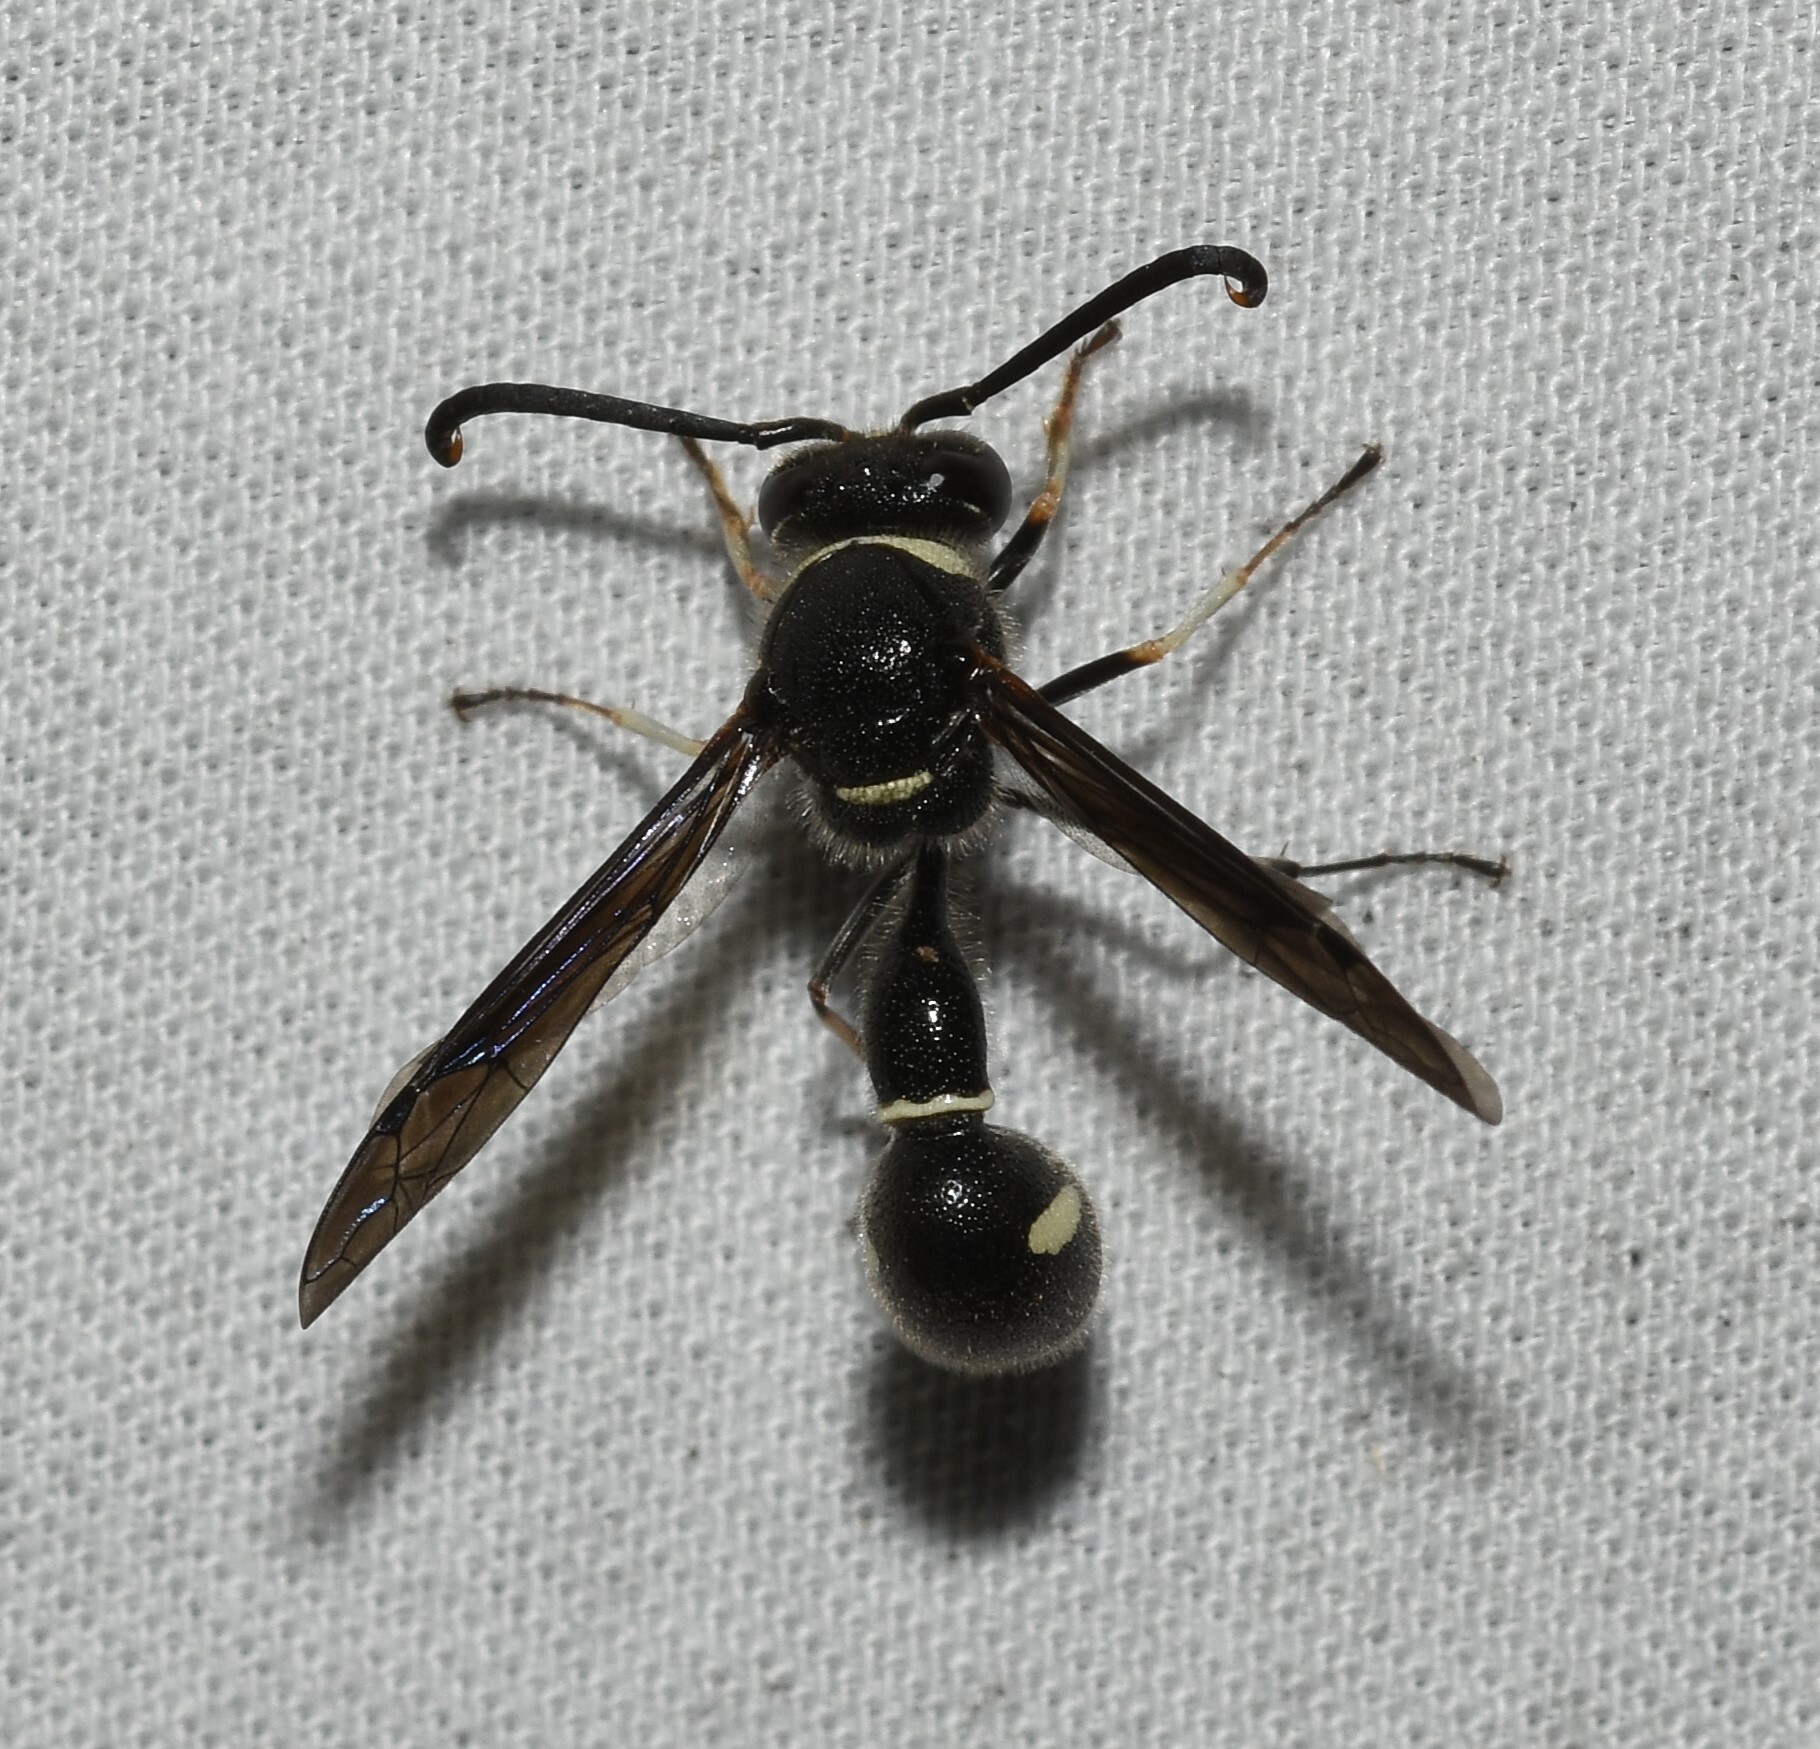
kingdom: Animalia
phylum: Arthropoda
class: Insecta
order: Hymenoptera
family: Vespidae
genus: Eumenes
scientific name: Eumenes fraternus
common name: Fraternal potter wasp
